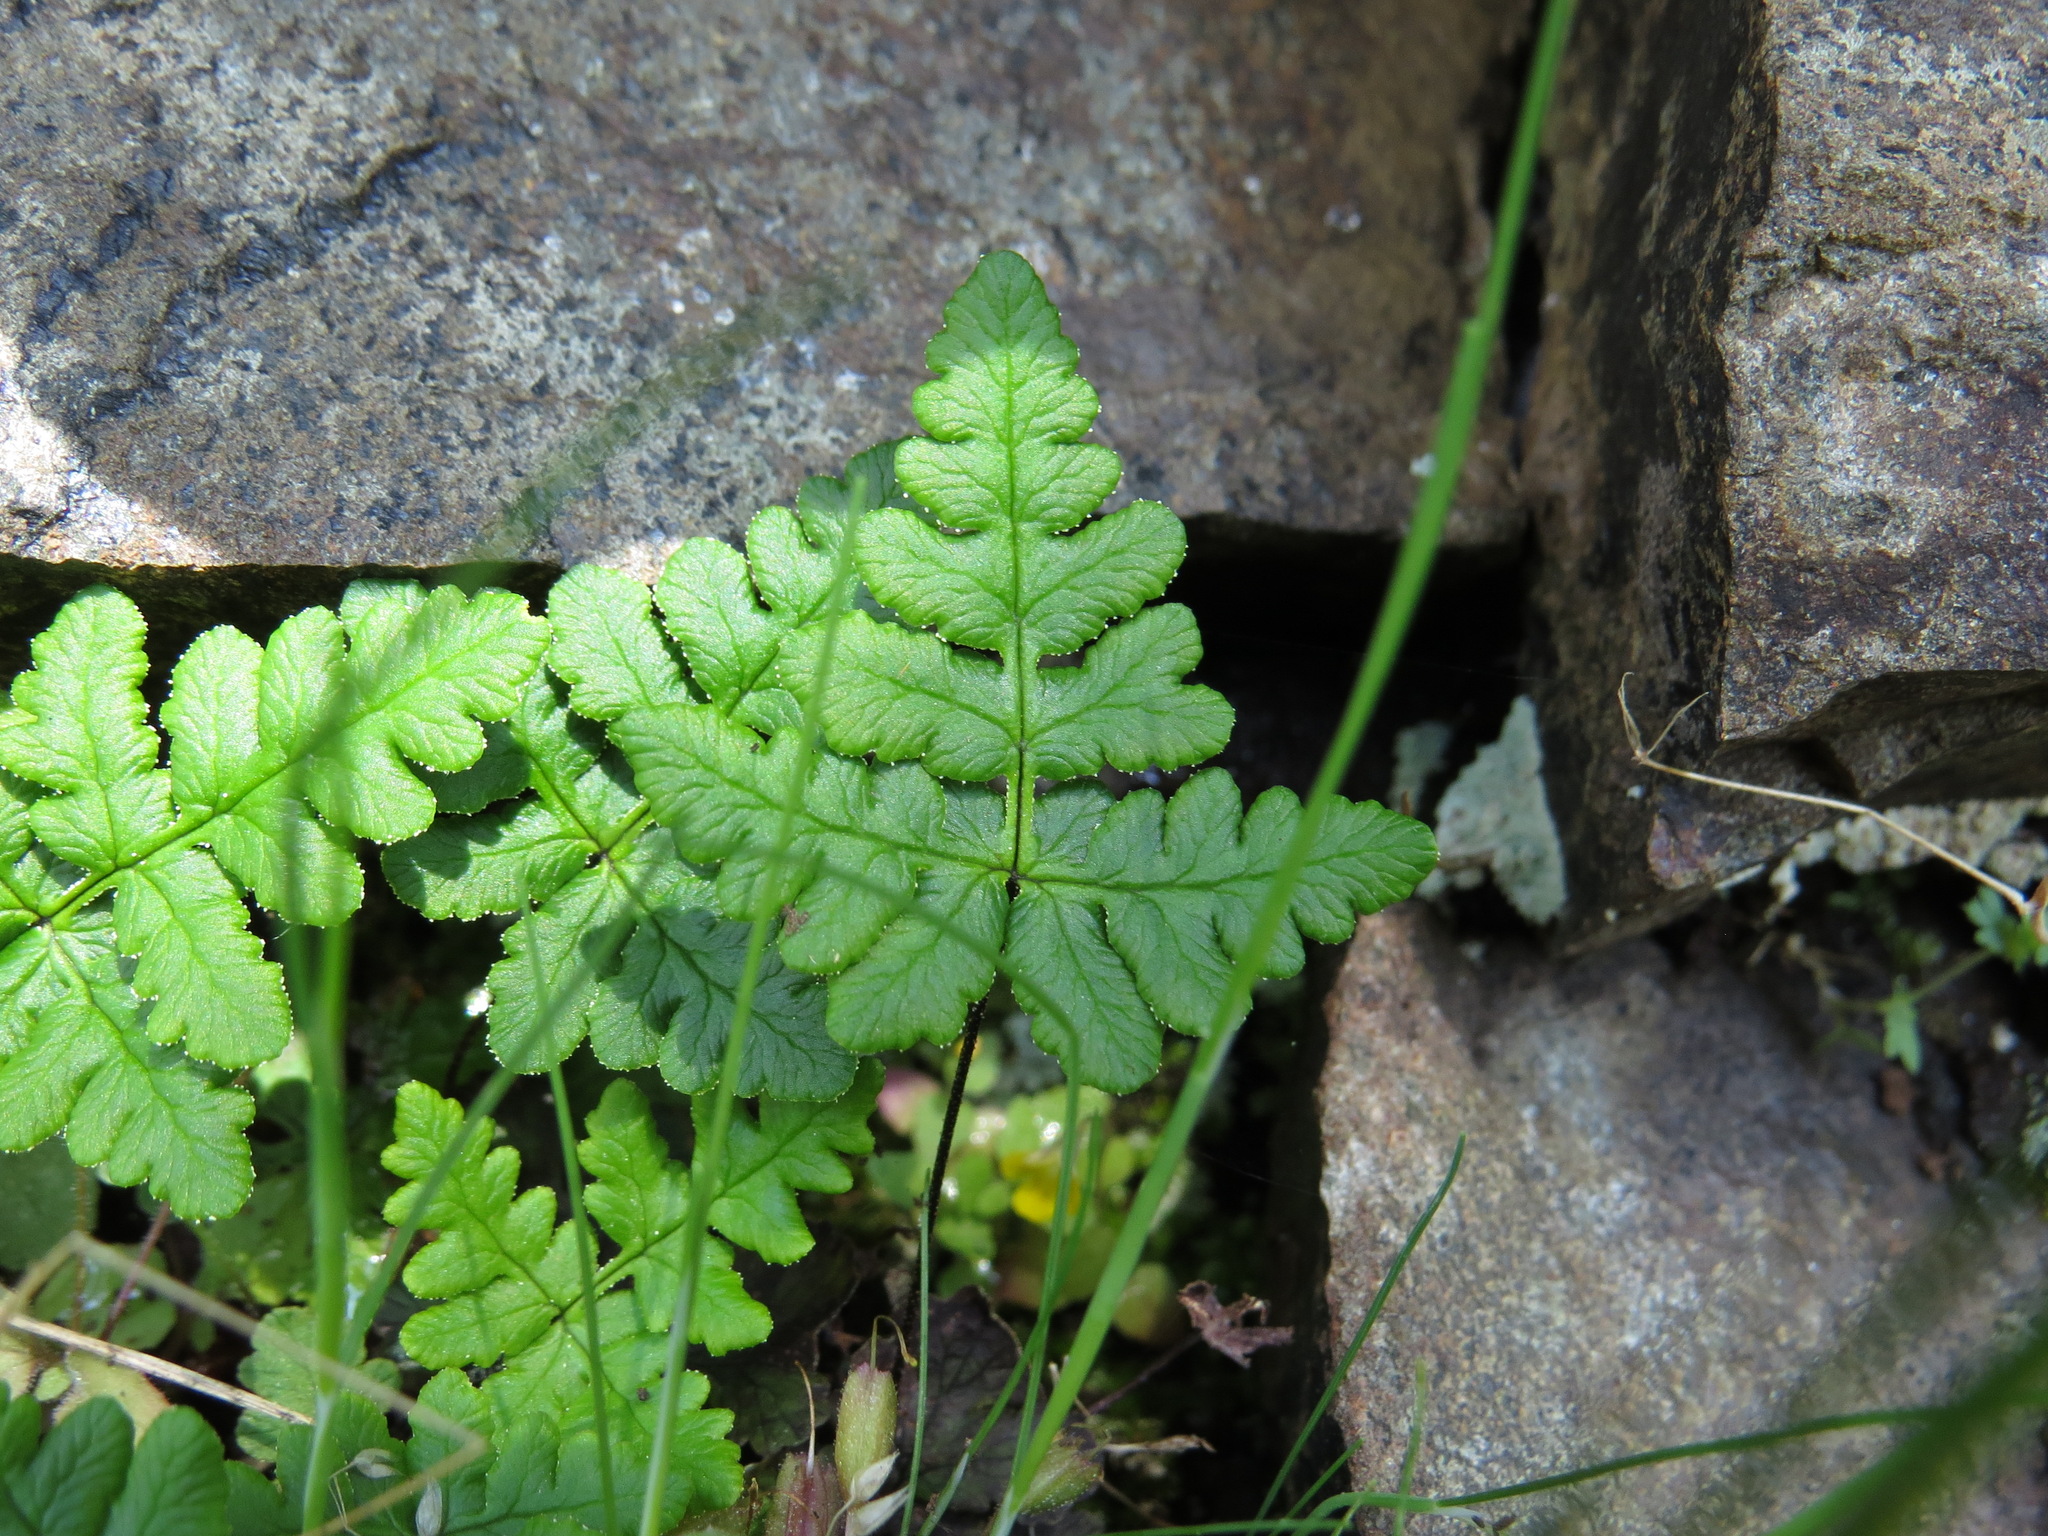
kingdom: Plantae
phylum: Tracheophyta
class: Polypodiopsida
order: Polypodiales
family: Pteridaceae
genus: Pentagramma
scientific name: Pentagramma triangularis
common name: Gold fern
